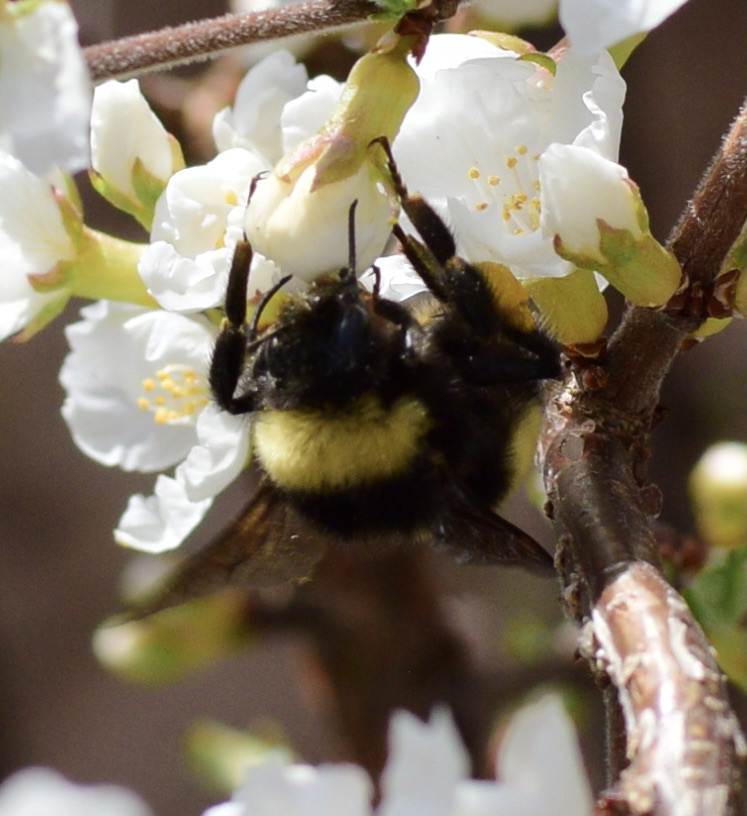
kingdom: Animalia
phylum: Arthropoda
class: Insecta
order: Hymenoptera
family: Apidae
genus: Bombus
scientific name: Bombus terricola
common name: Yellow-banded bumble bee
